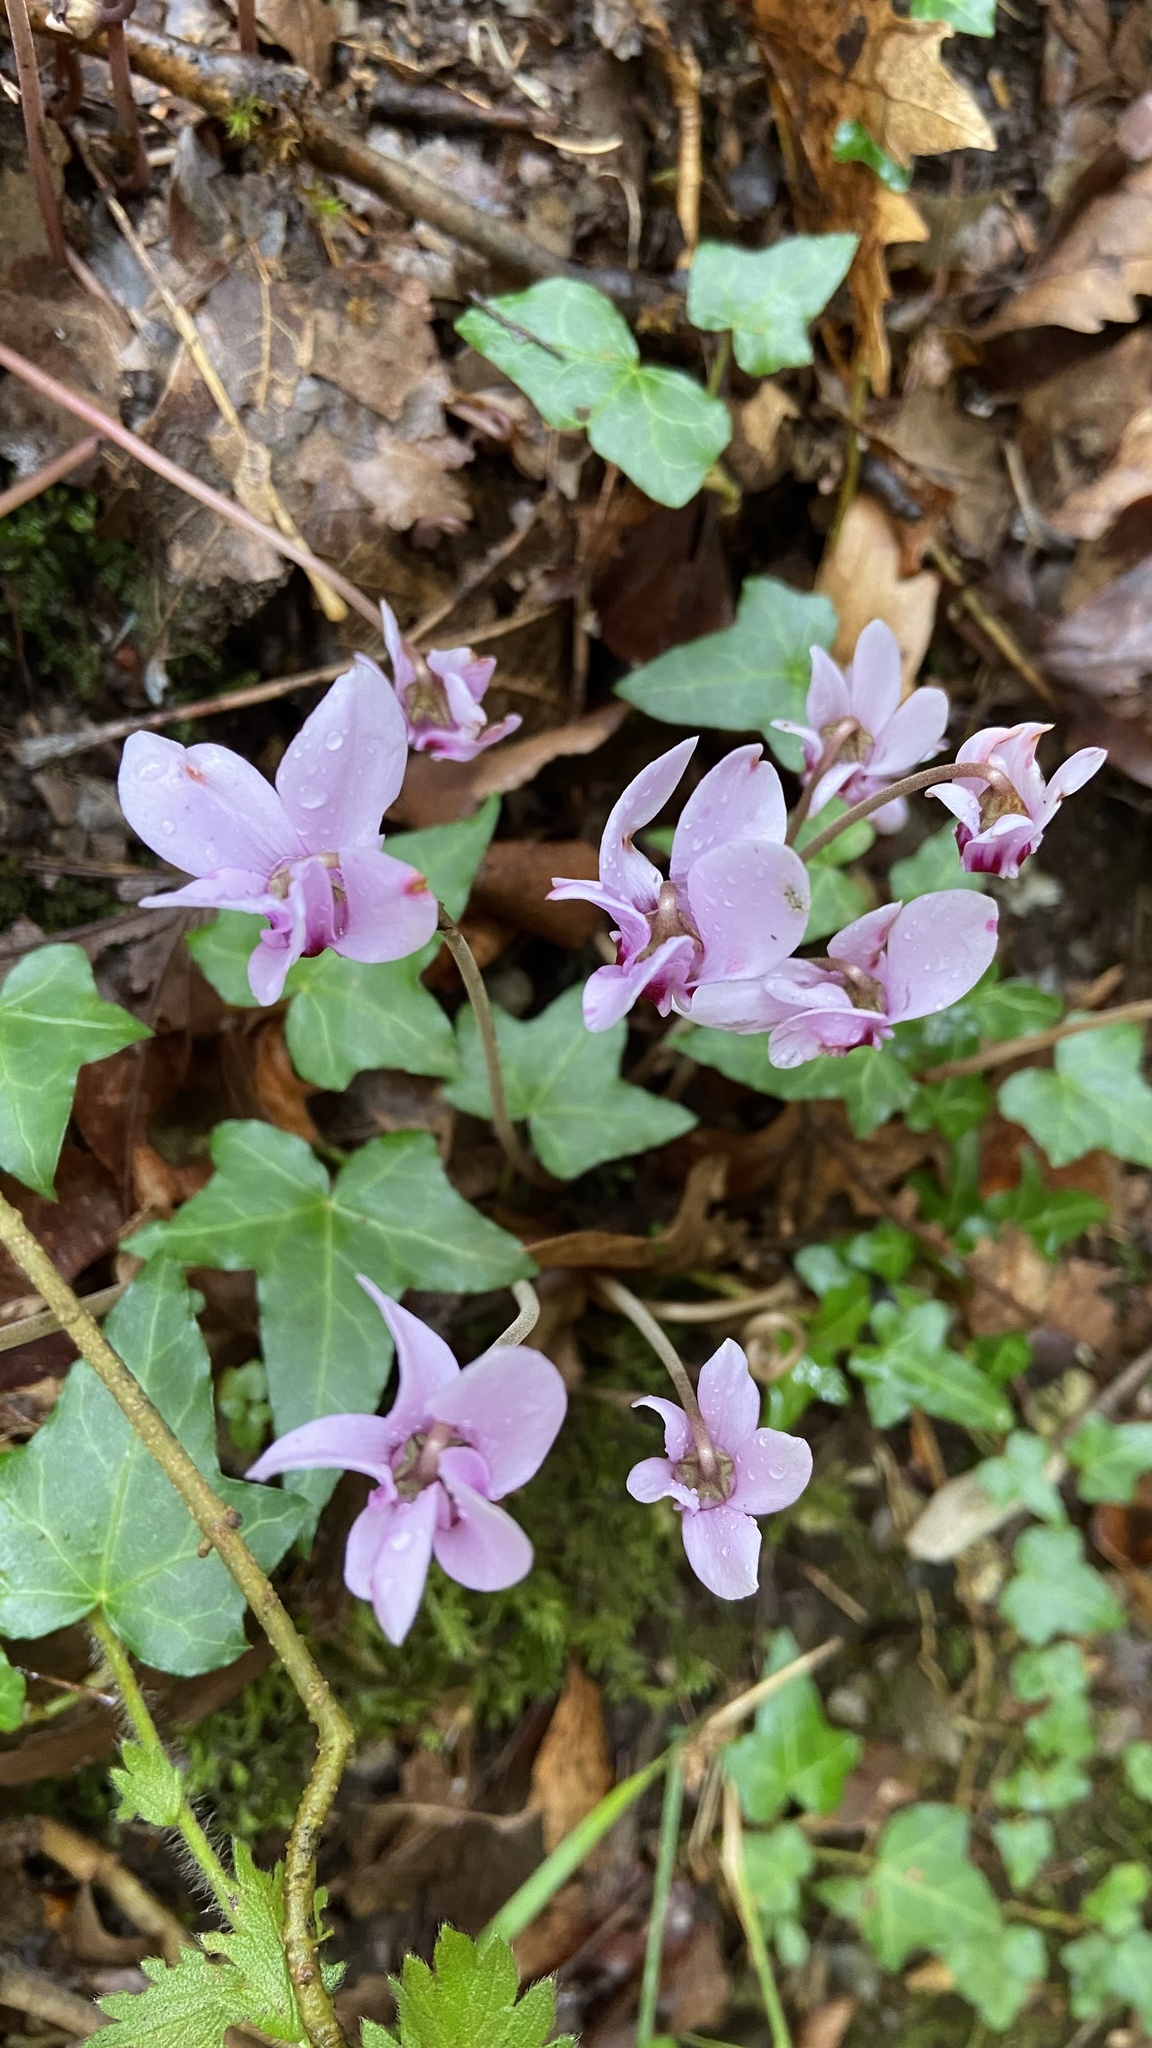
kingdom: Plantae
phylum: Tracheophyta
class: Magnoliopsida
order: Ericales
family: Primulaceae
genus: Cyclamen
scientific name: Cyclamen hederifolium
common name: Sowbread
